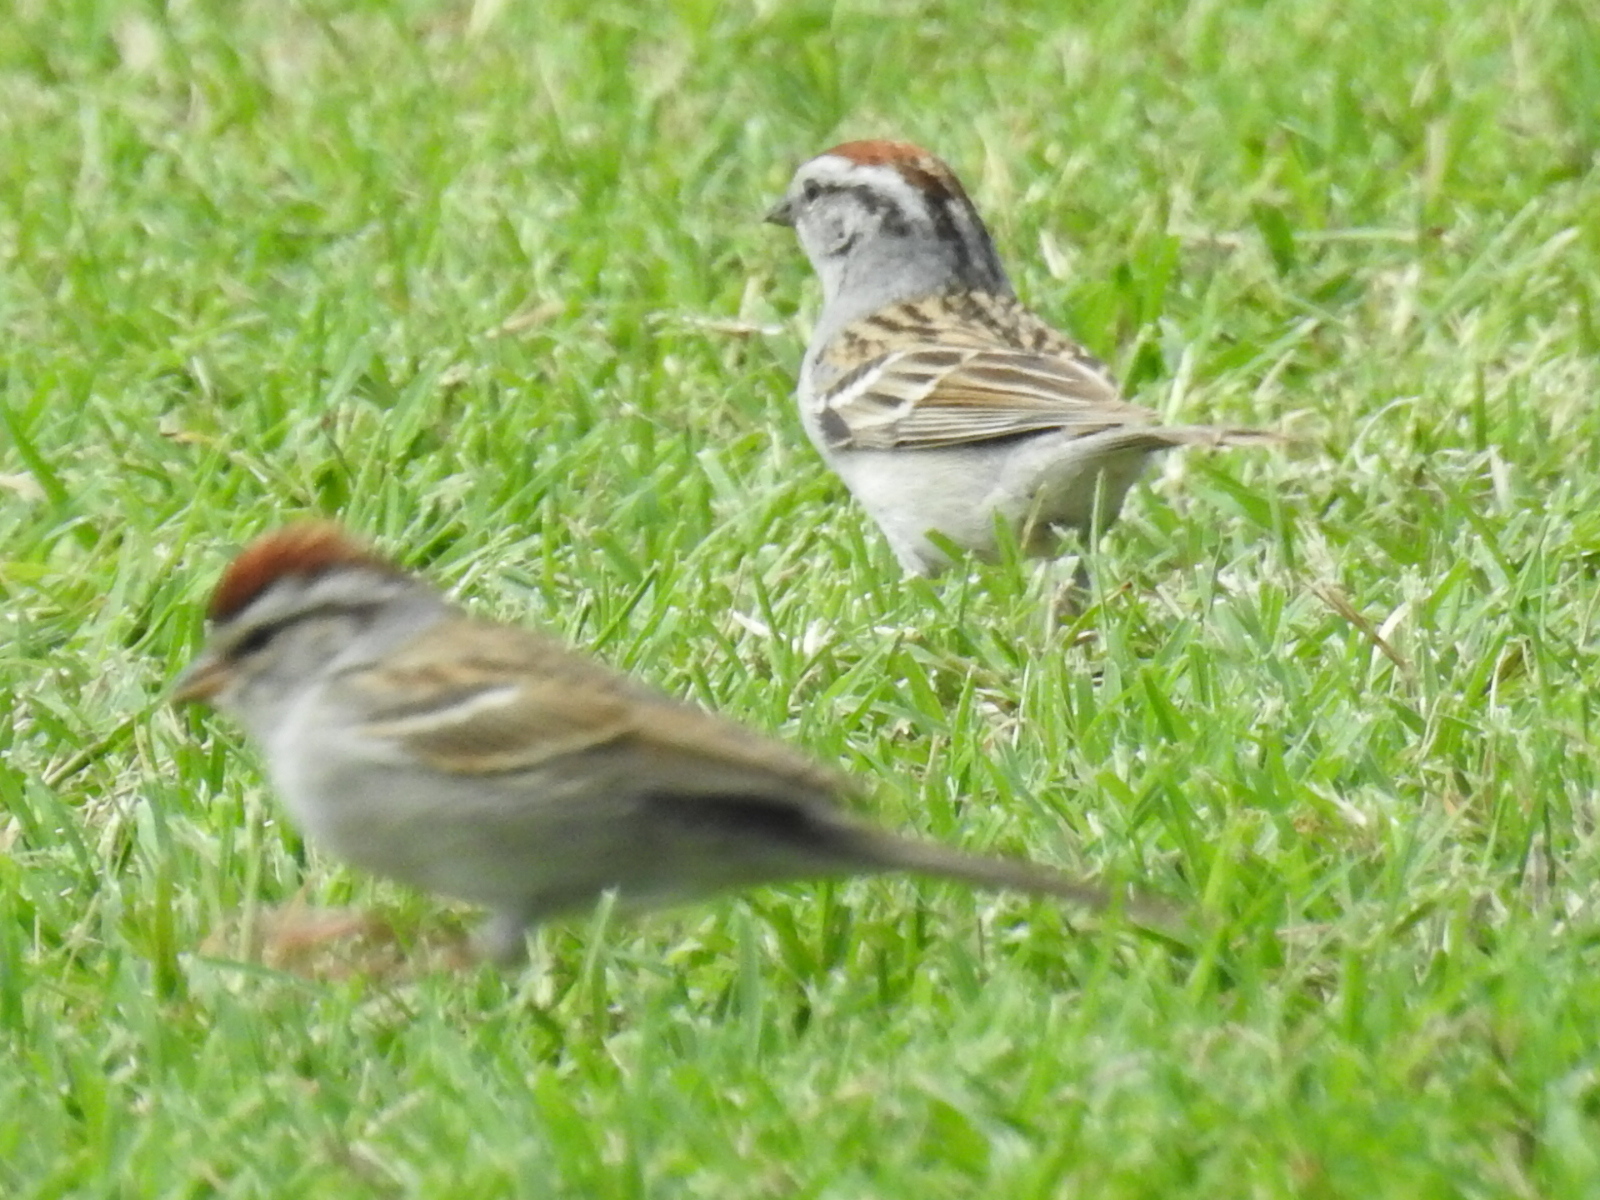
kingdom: Animalia
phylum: Chordata
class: Aves
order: Passeriformes
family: Passerellidae
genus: Spizella
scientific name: Spizella passerina
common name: Chipping sparrow
